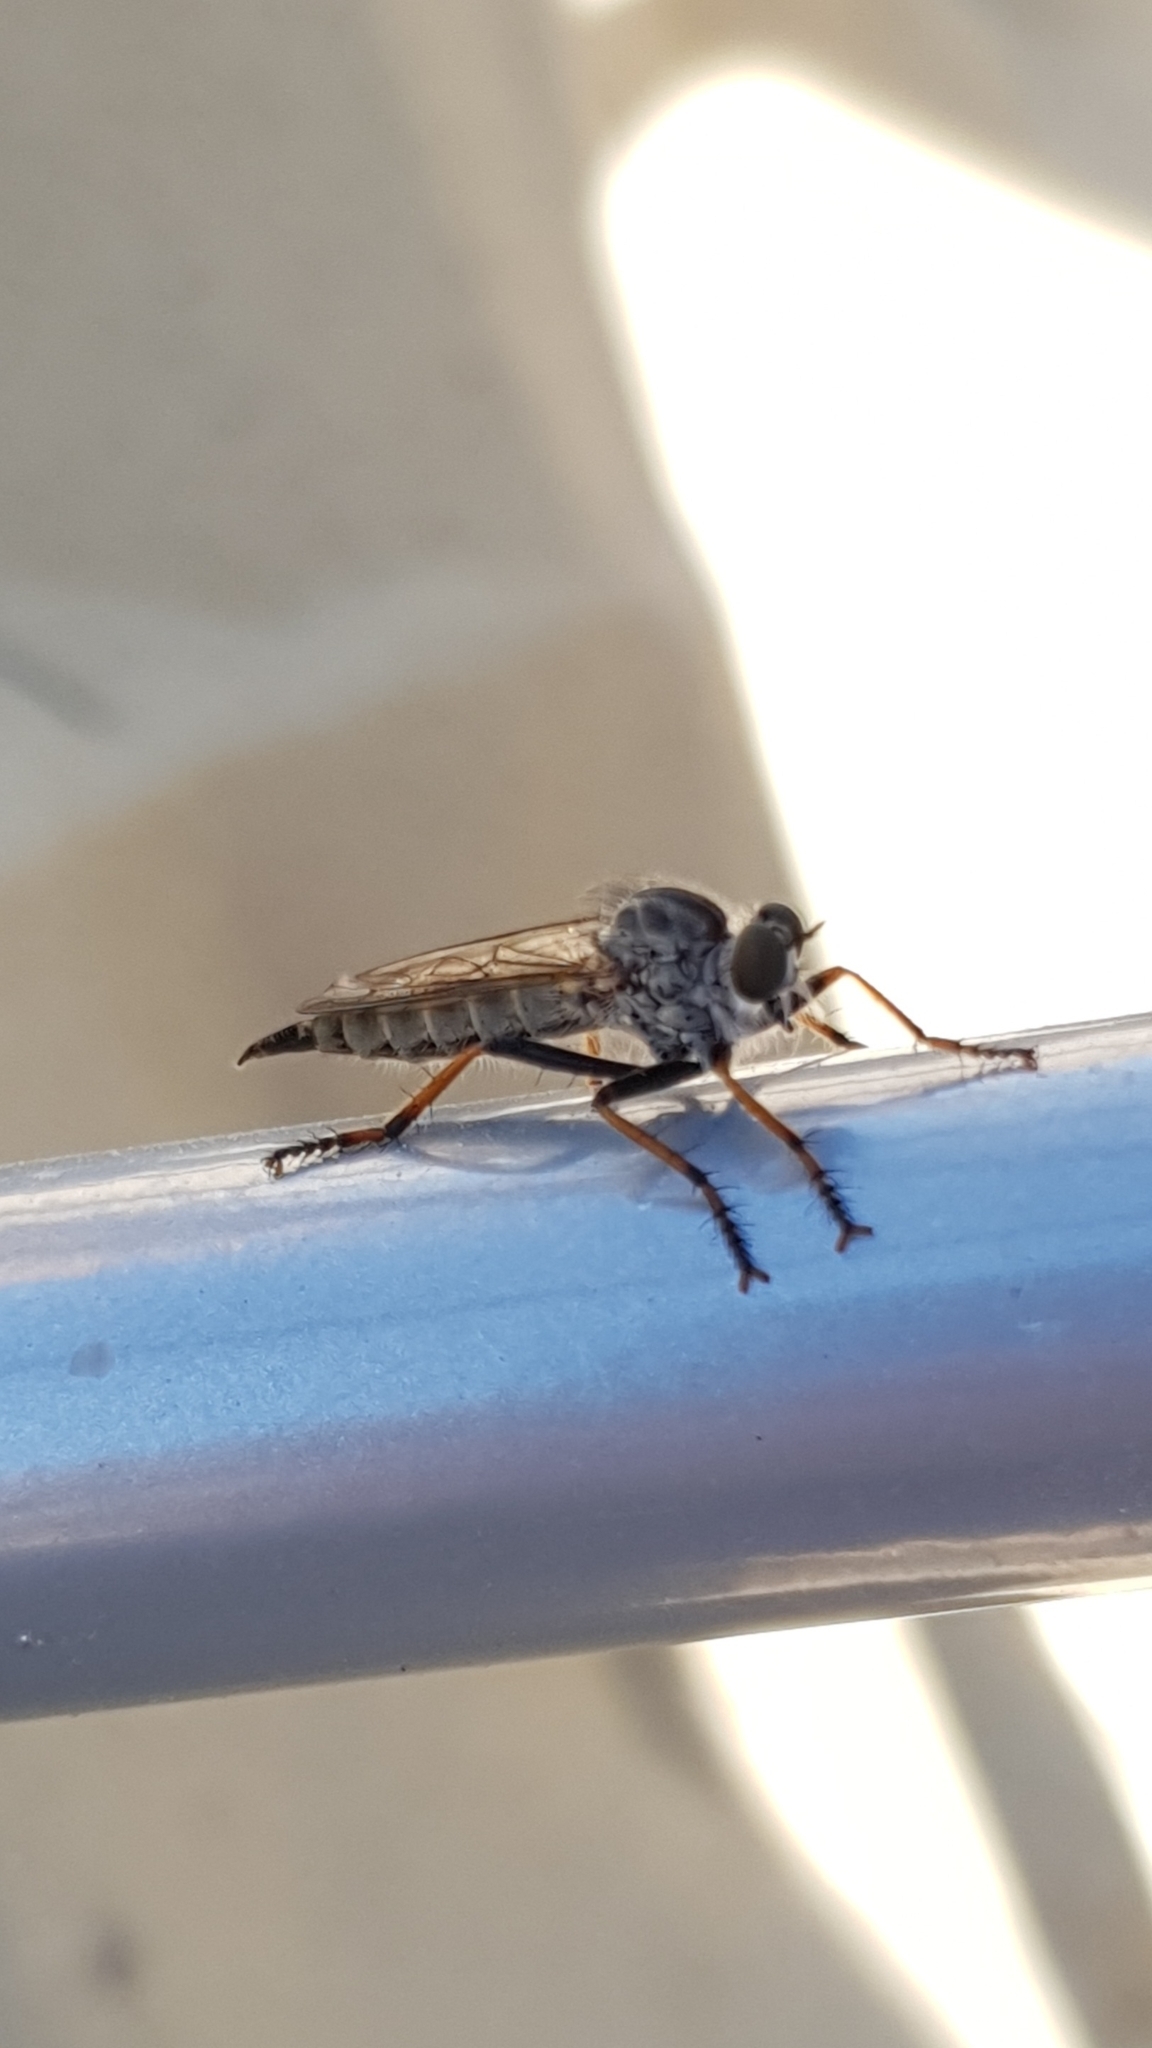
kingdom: Animalia
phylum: Arthropoda
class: Insecta
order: Diptera
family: Asilidae
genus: Paritamus
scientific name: Paritamus geniculatus
